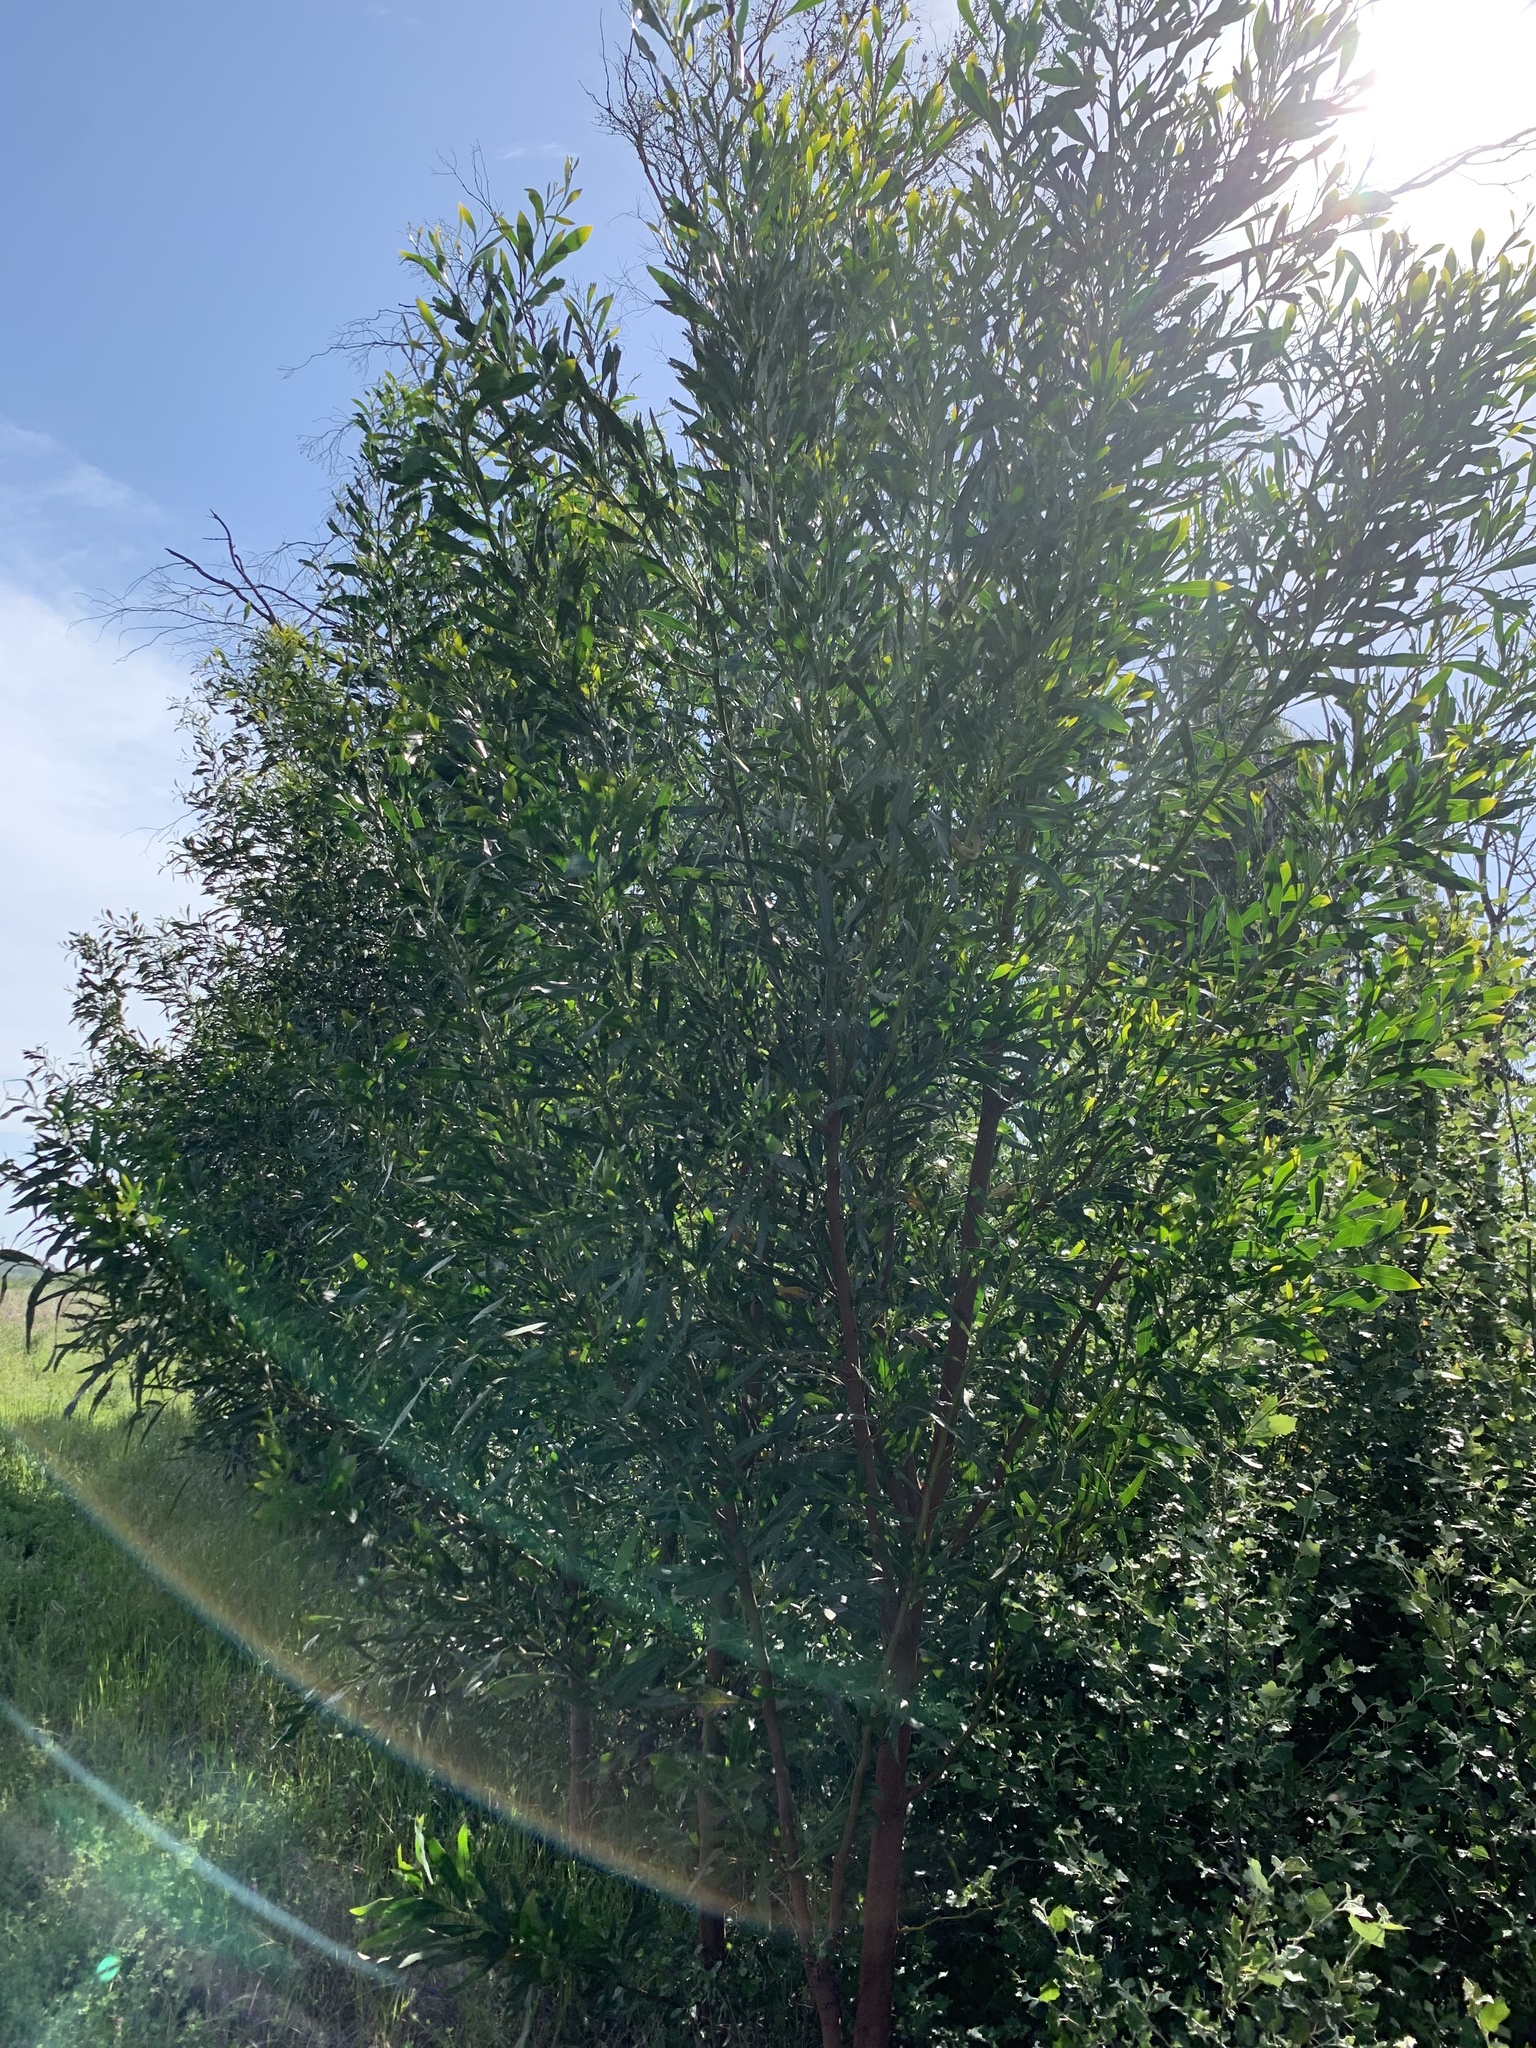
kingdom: Plantae
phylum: Tracheophyta
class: Magnoliopsida
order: Fabales
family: Fabaceae
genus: Acacia
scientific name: Acacia saligna
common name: Orange wattle
